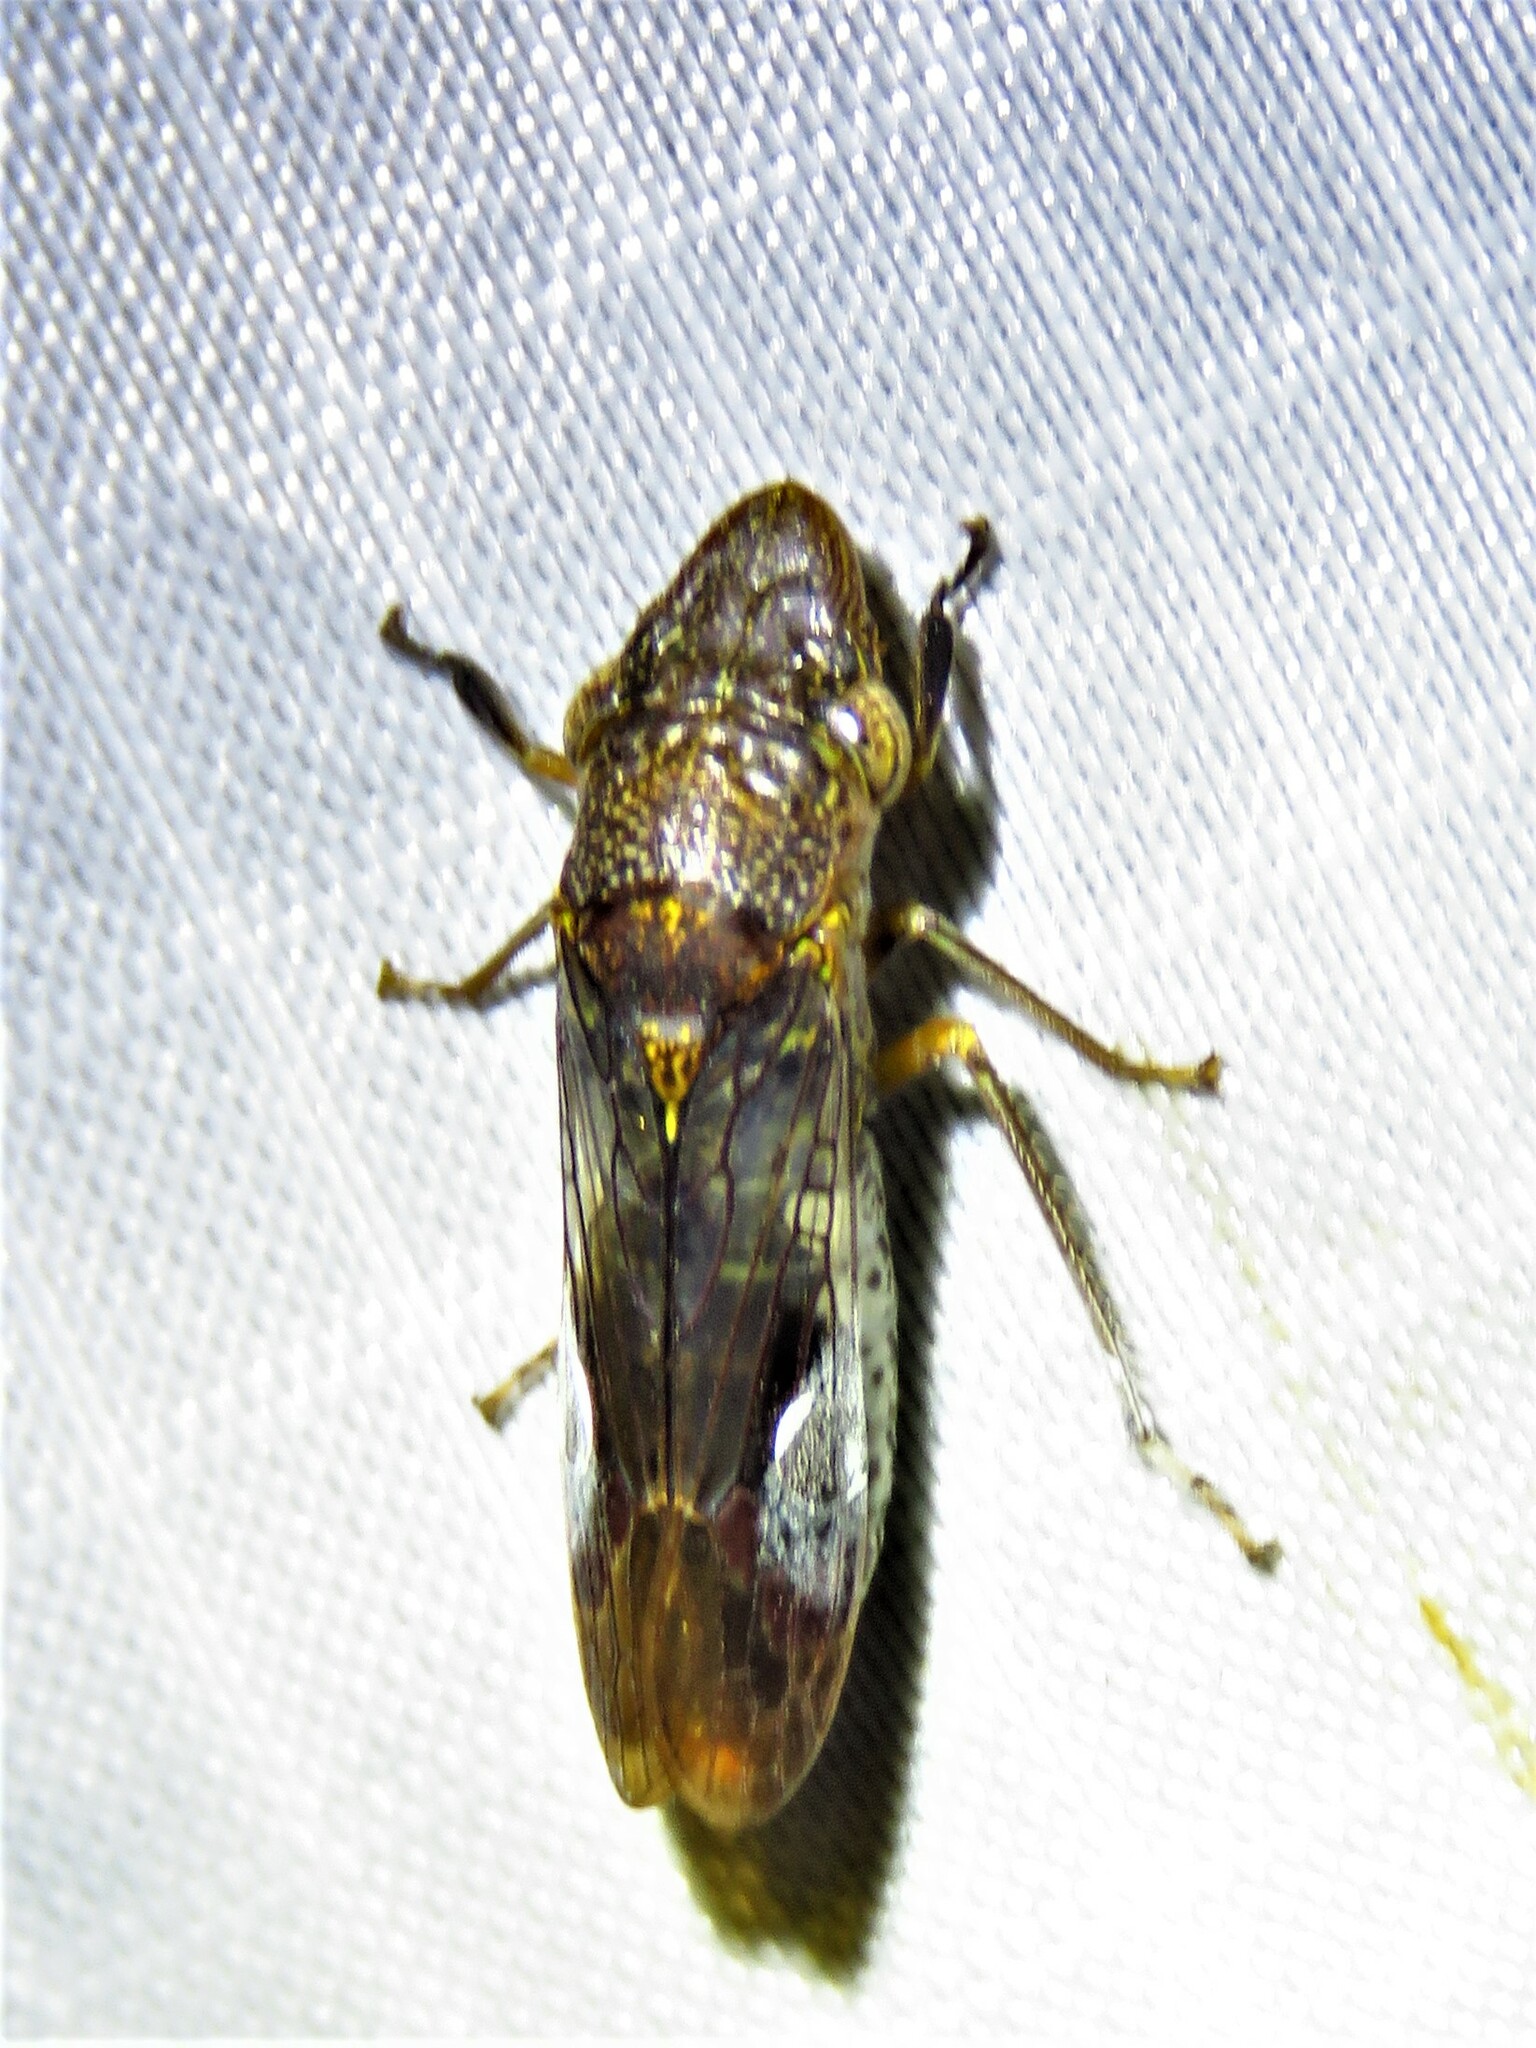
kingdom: Animalia
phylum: Arthropoda
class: Insecta
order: Hemiptera
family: Cicadellidae
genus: Homalodisca
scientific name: Homalodisca vitripennis
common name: Glassy-winged sharpshooter
